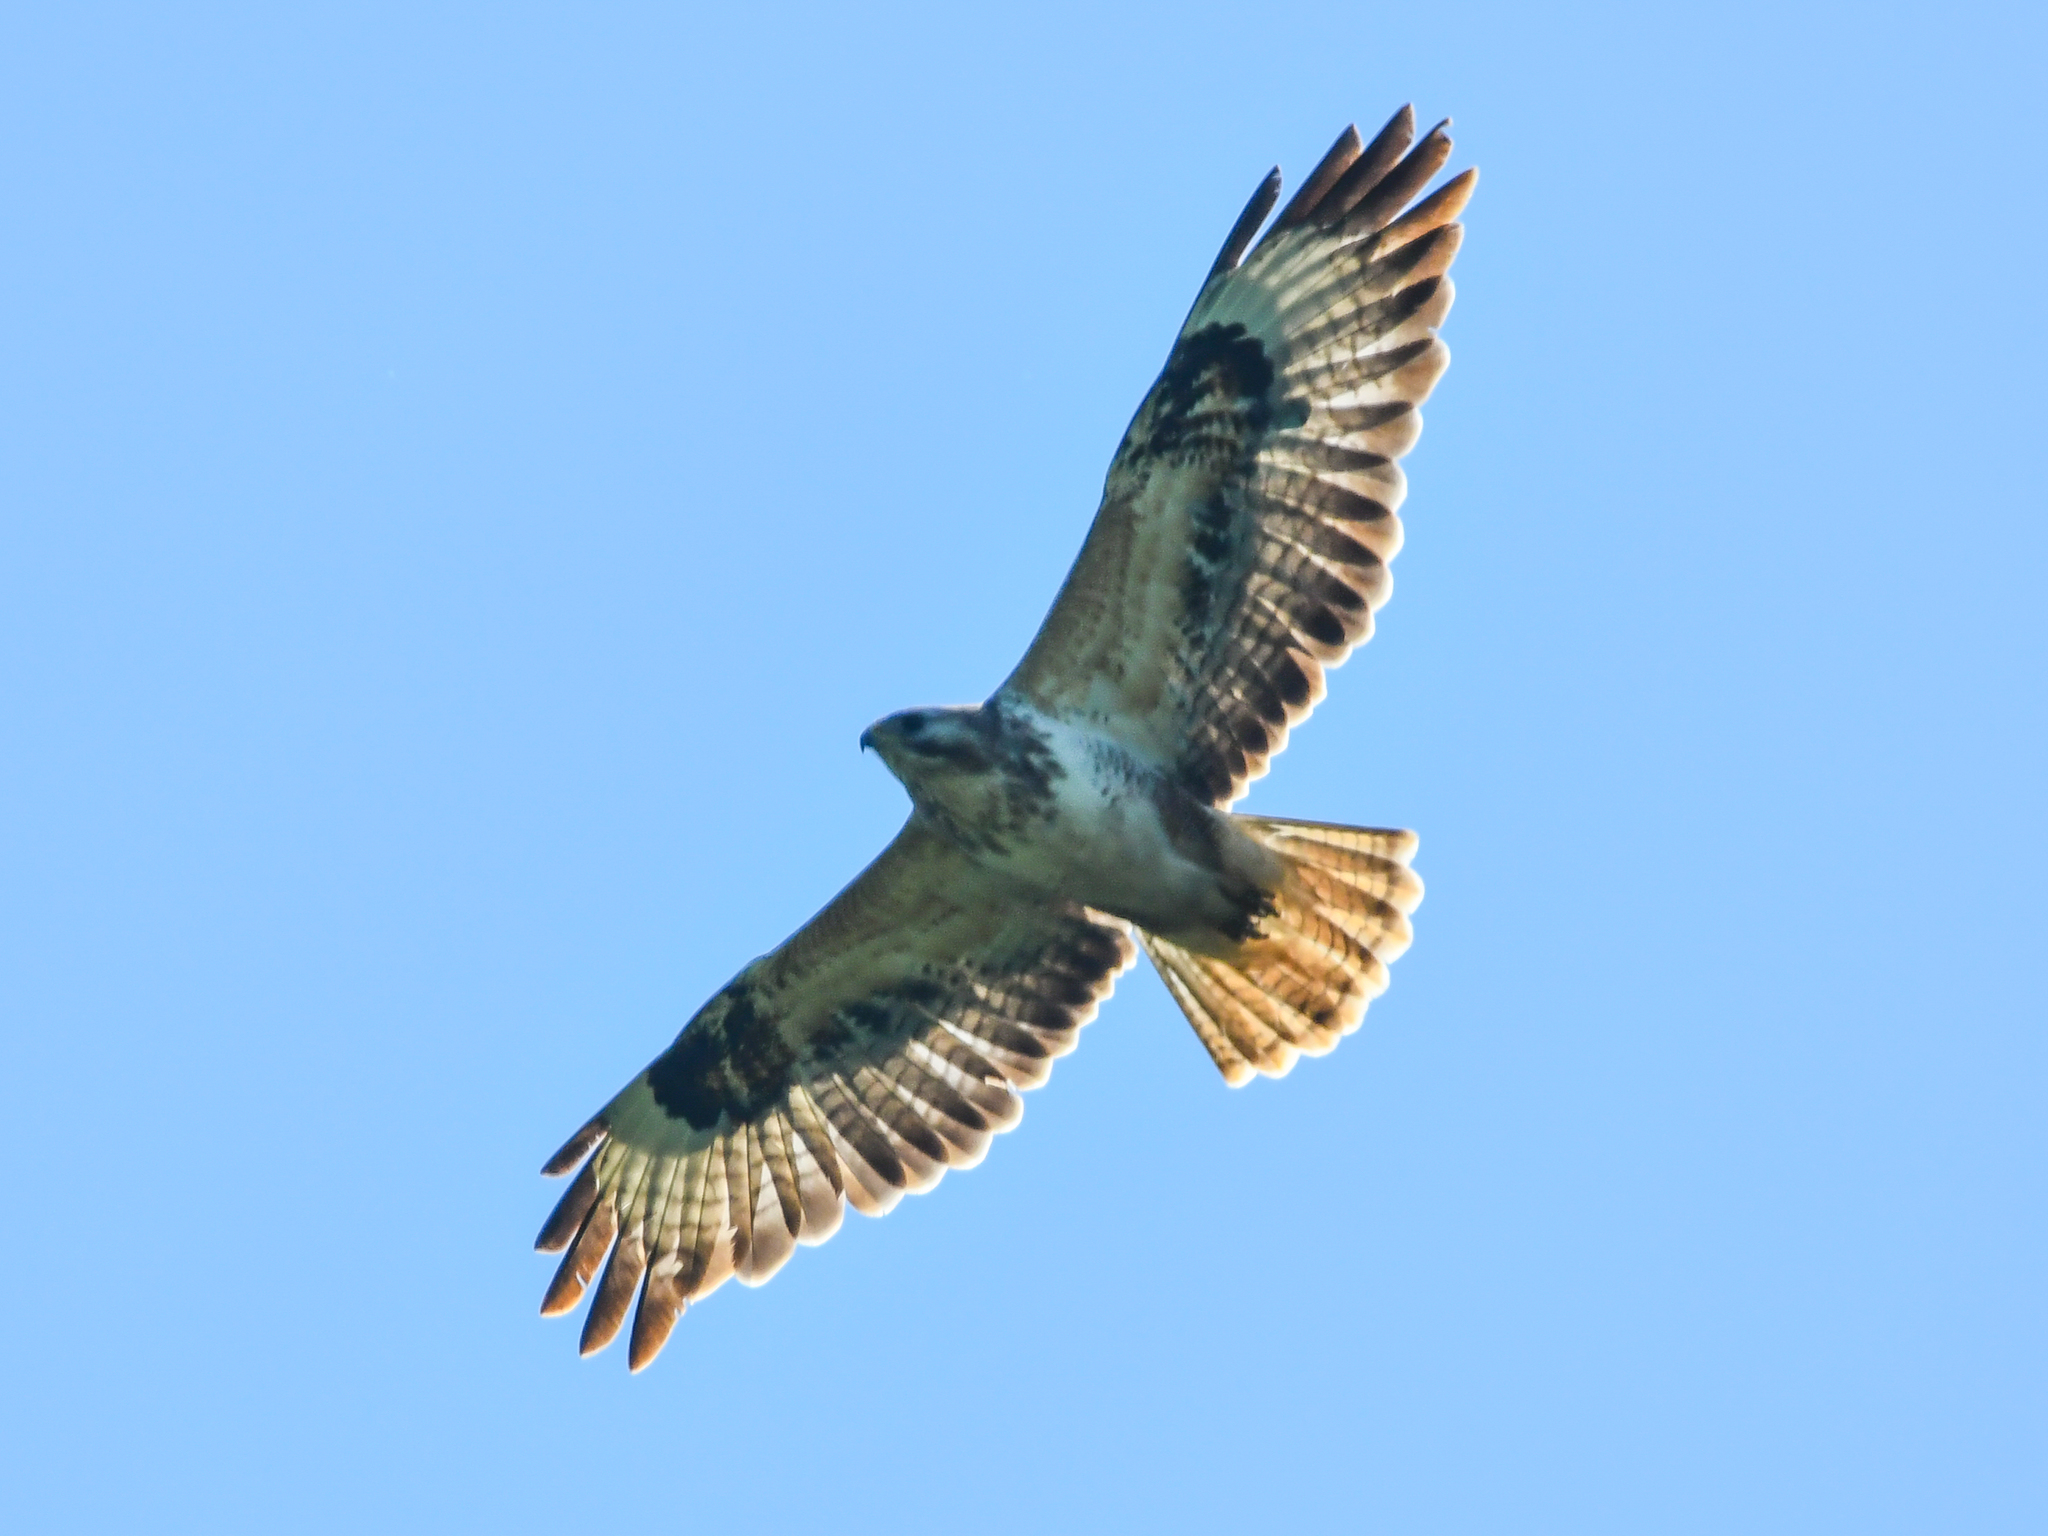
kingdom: Animalia
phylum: Chordata
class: Aves
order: Accipitriformes
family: Accipitridae
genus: Buteo
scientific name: Buteo buteo
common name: Common buzzard
